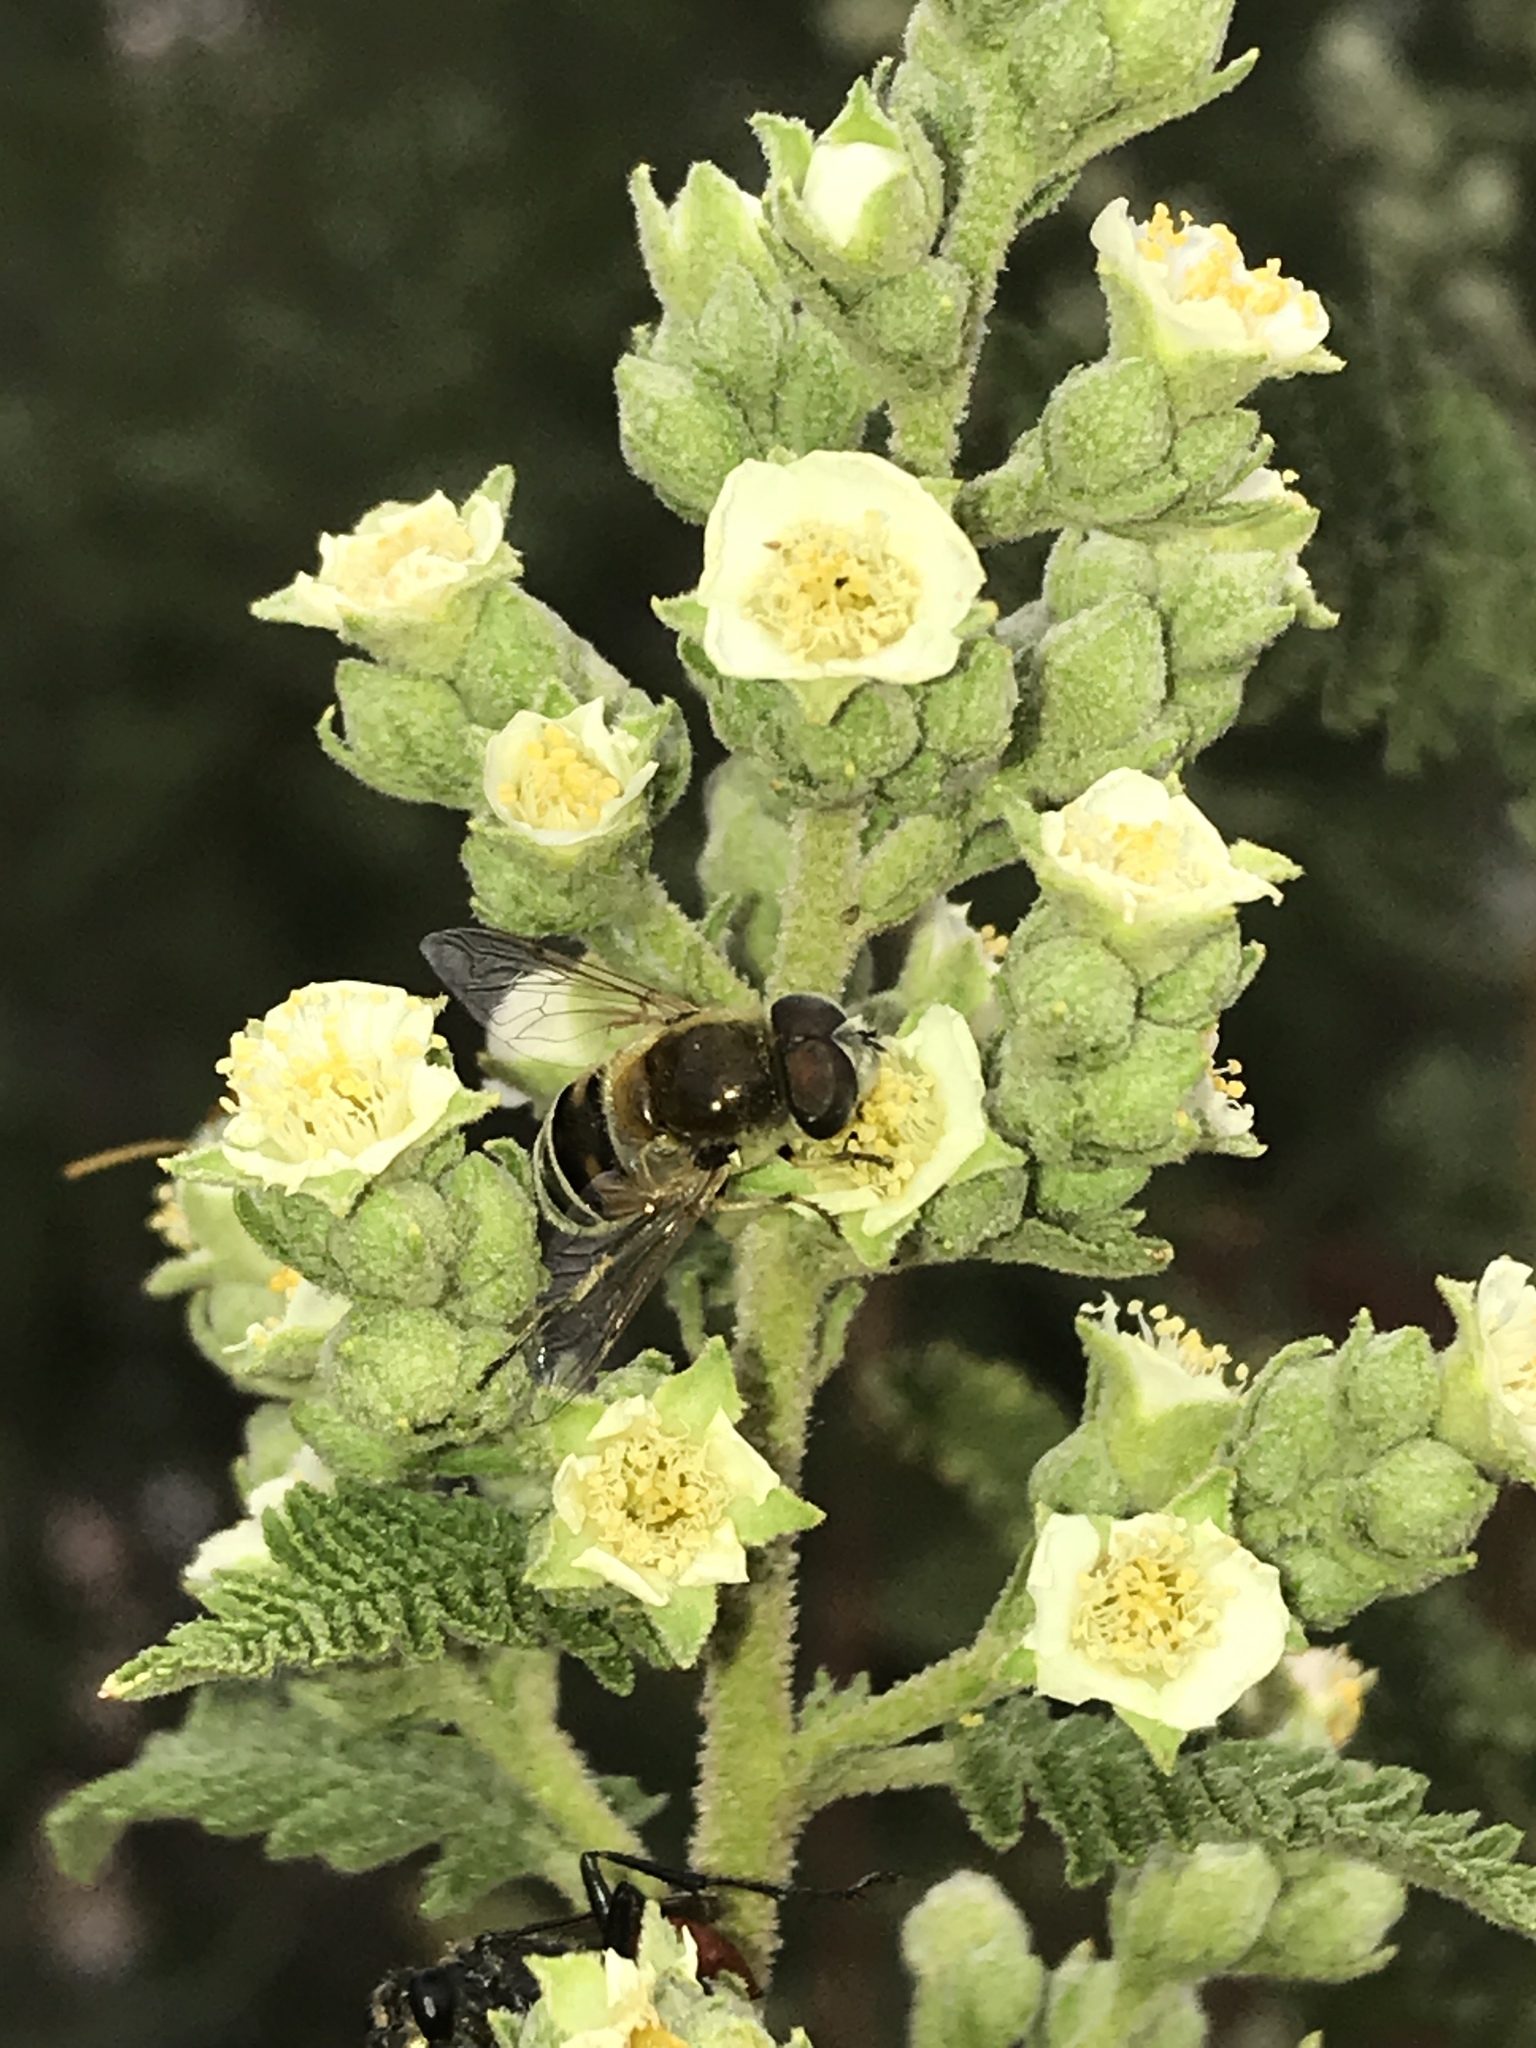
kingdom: Animalia
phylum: Arthropoda
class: Insecta
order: Diptera
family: Syrphidae
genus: Eristalis
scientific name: Eristalis stipator
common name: Yellow-shouldered drone fly
